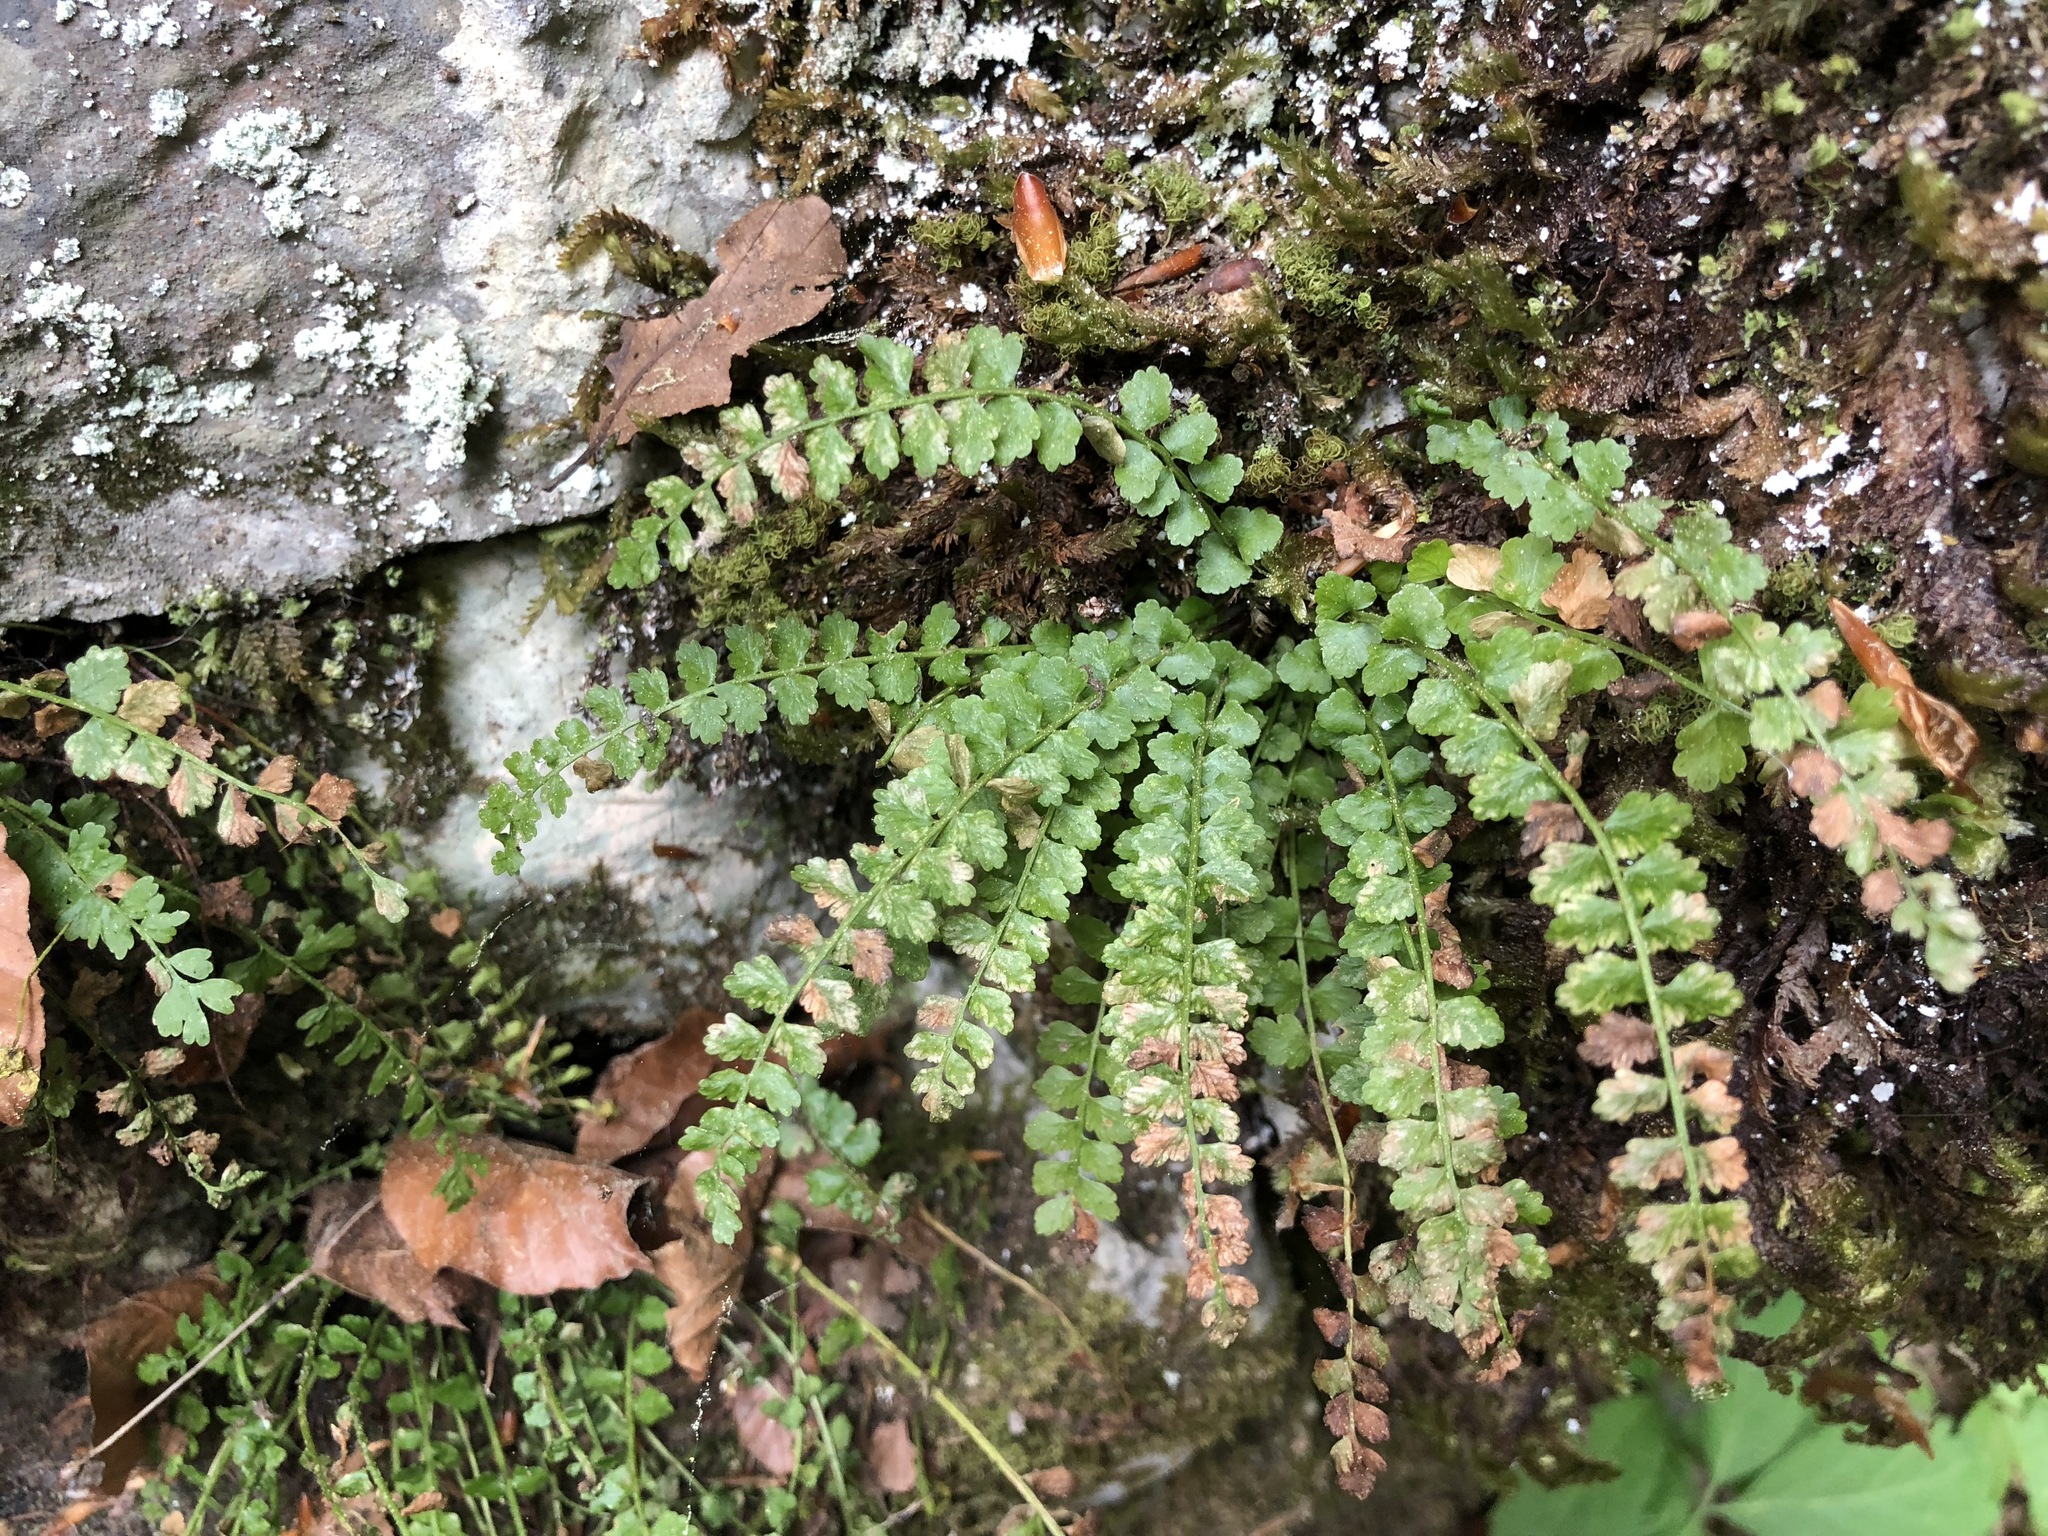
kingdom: Plantae
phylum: Tracheophyta
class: Polypodiopsida
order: Polypodiales
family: Aspleniaceae
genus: Asplenium
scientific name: Asplenium viride
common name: Green spleenwort
